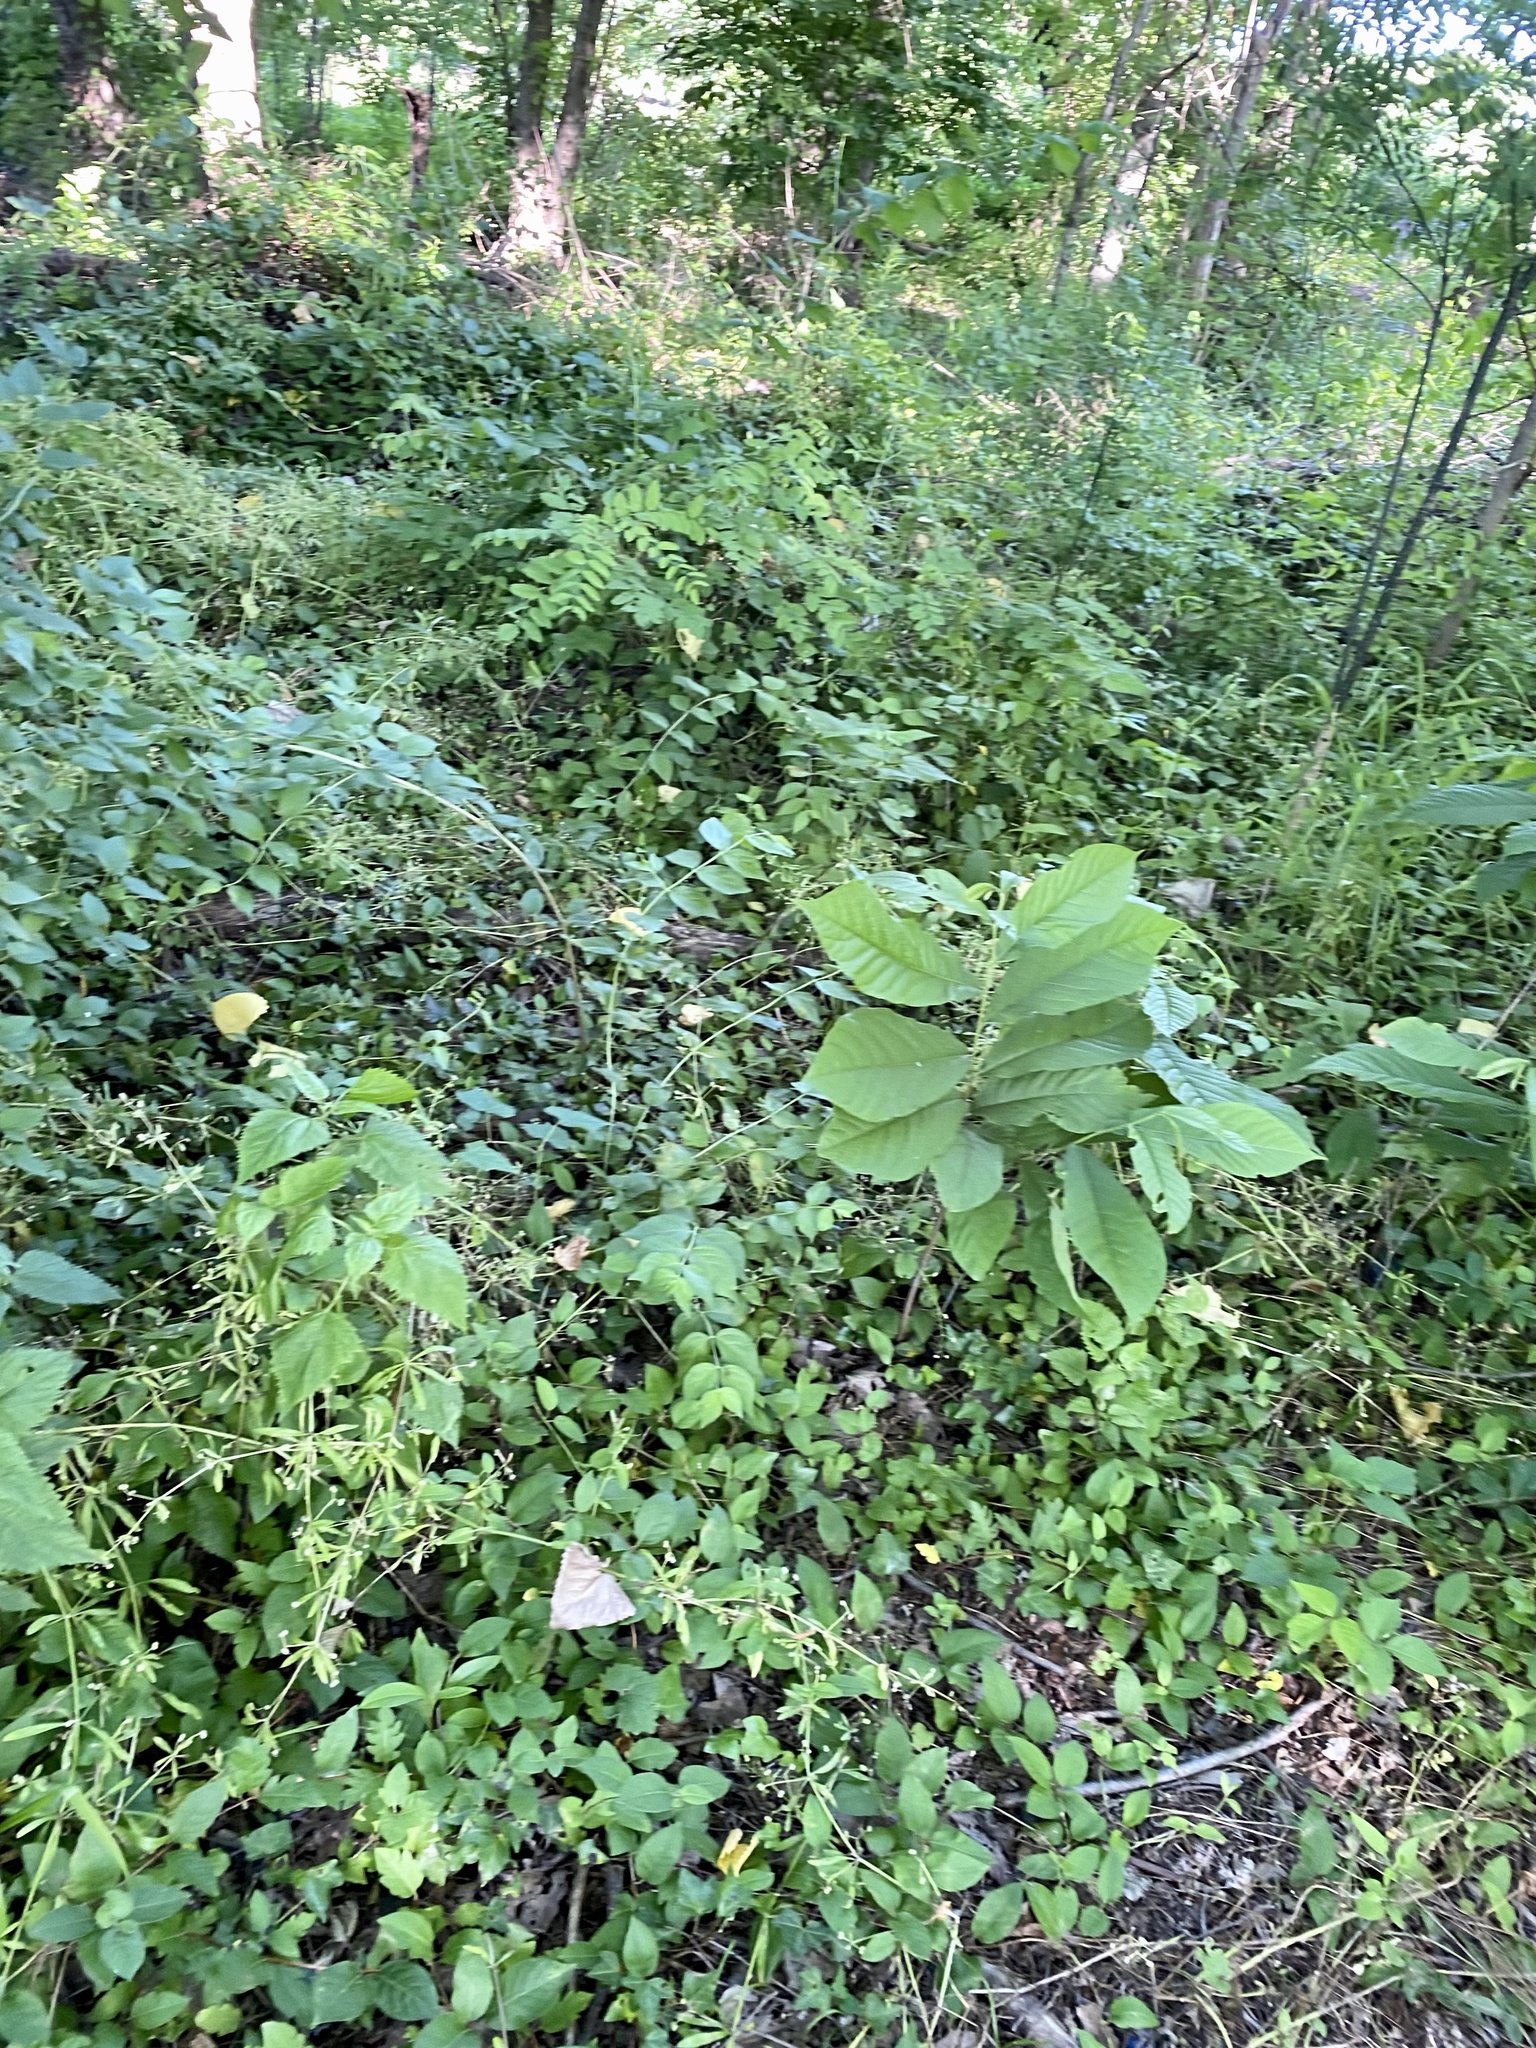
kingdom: Plantae
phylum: Tracheophyta
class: Magnoliopsida
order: Magnoliales
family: Annonaceae
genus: Asimina
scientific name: Asimina triloba
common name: Dog-banana
